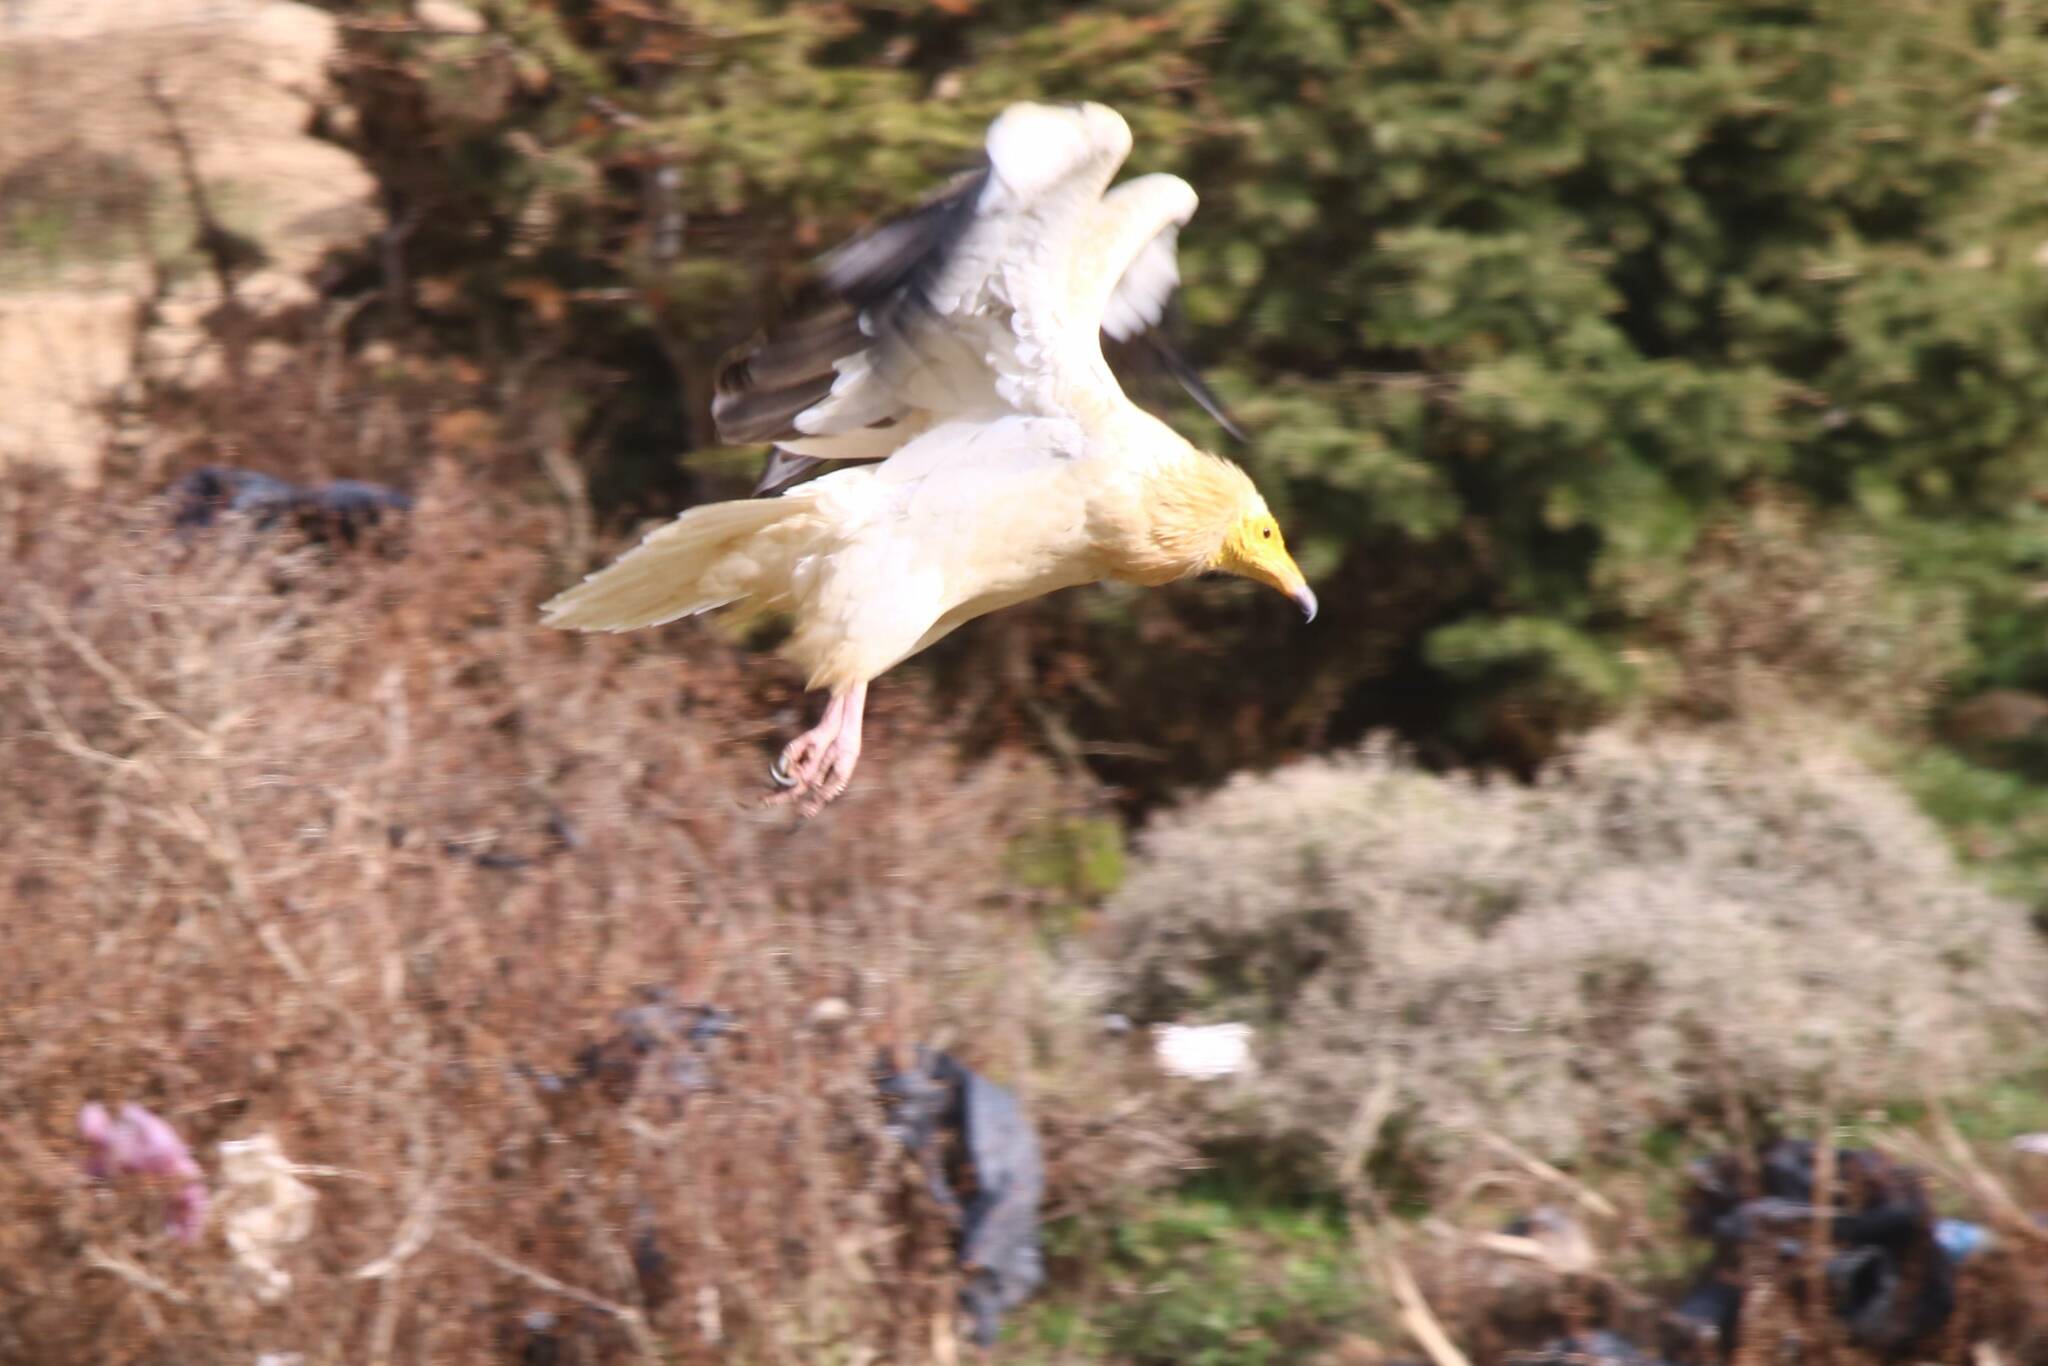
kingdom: Animalia
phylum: Chordata
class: Aves
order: Accipitriformes
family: Accipitridae
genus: Neophron
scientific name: Neophron percnopterus
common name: Egyptian vulture
